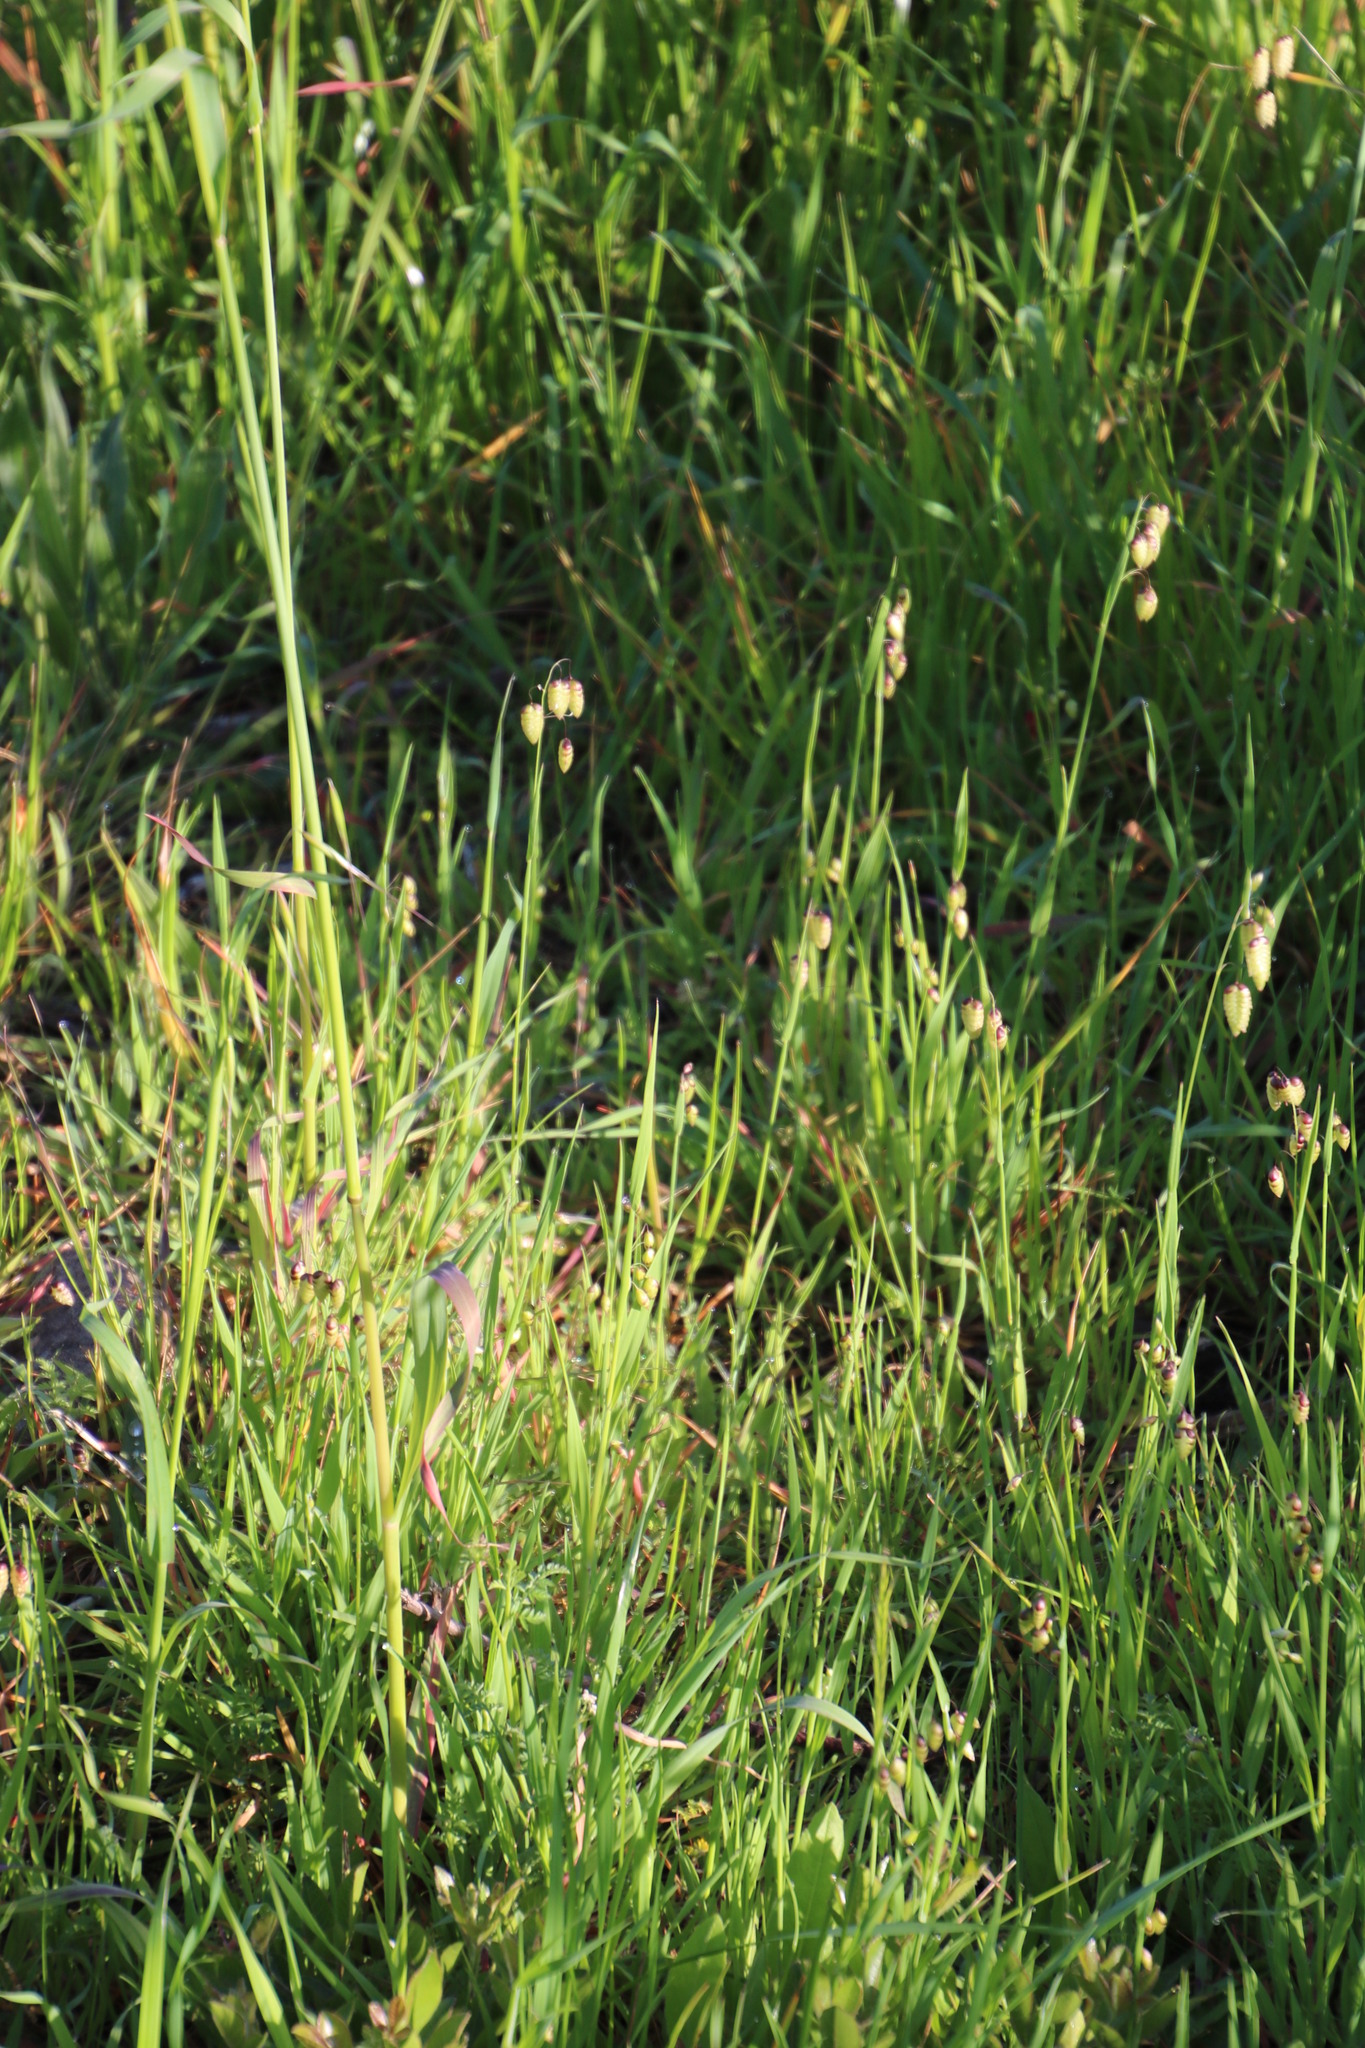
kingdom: Plantae
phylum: Tracheophyta
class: Liliopsida
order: Poales
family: Poaceae
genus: Briza
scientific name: Briza maxima
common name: Big quakinggrass
